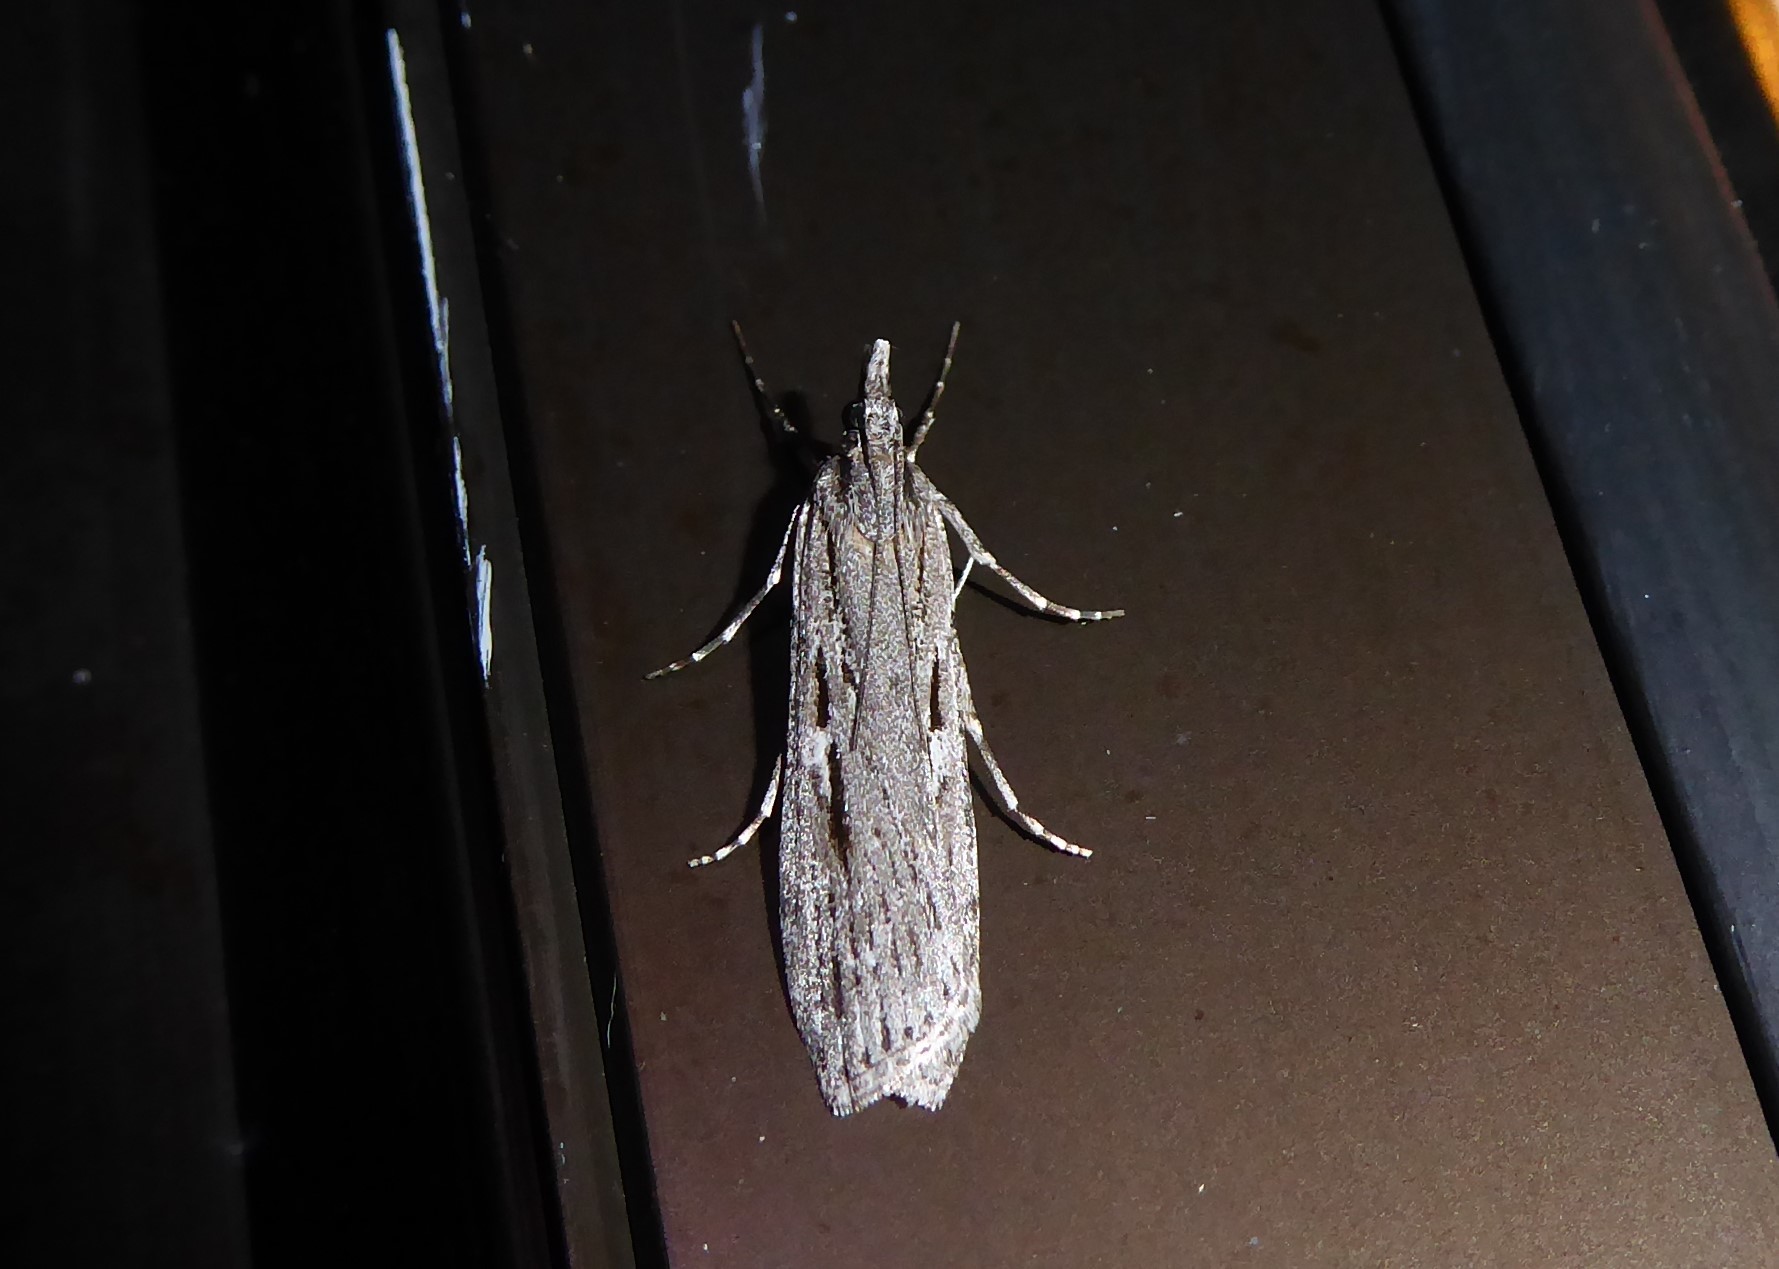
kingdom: Animalia
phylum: Arthropoda
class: Insecta
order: Lepidoptera
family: Crambidae
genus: Scoparia
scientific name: Scoparia indistinctalis
